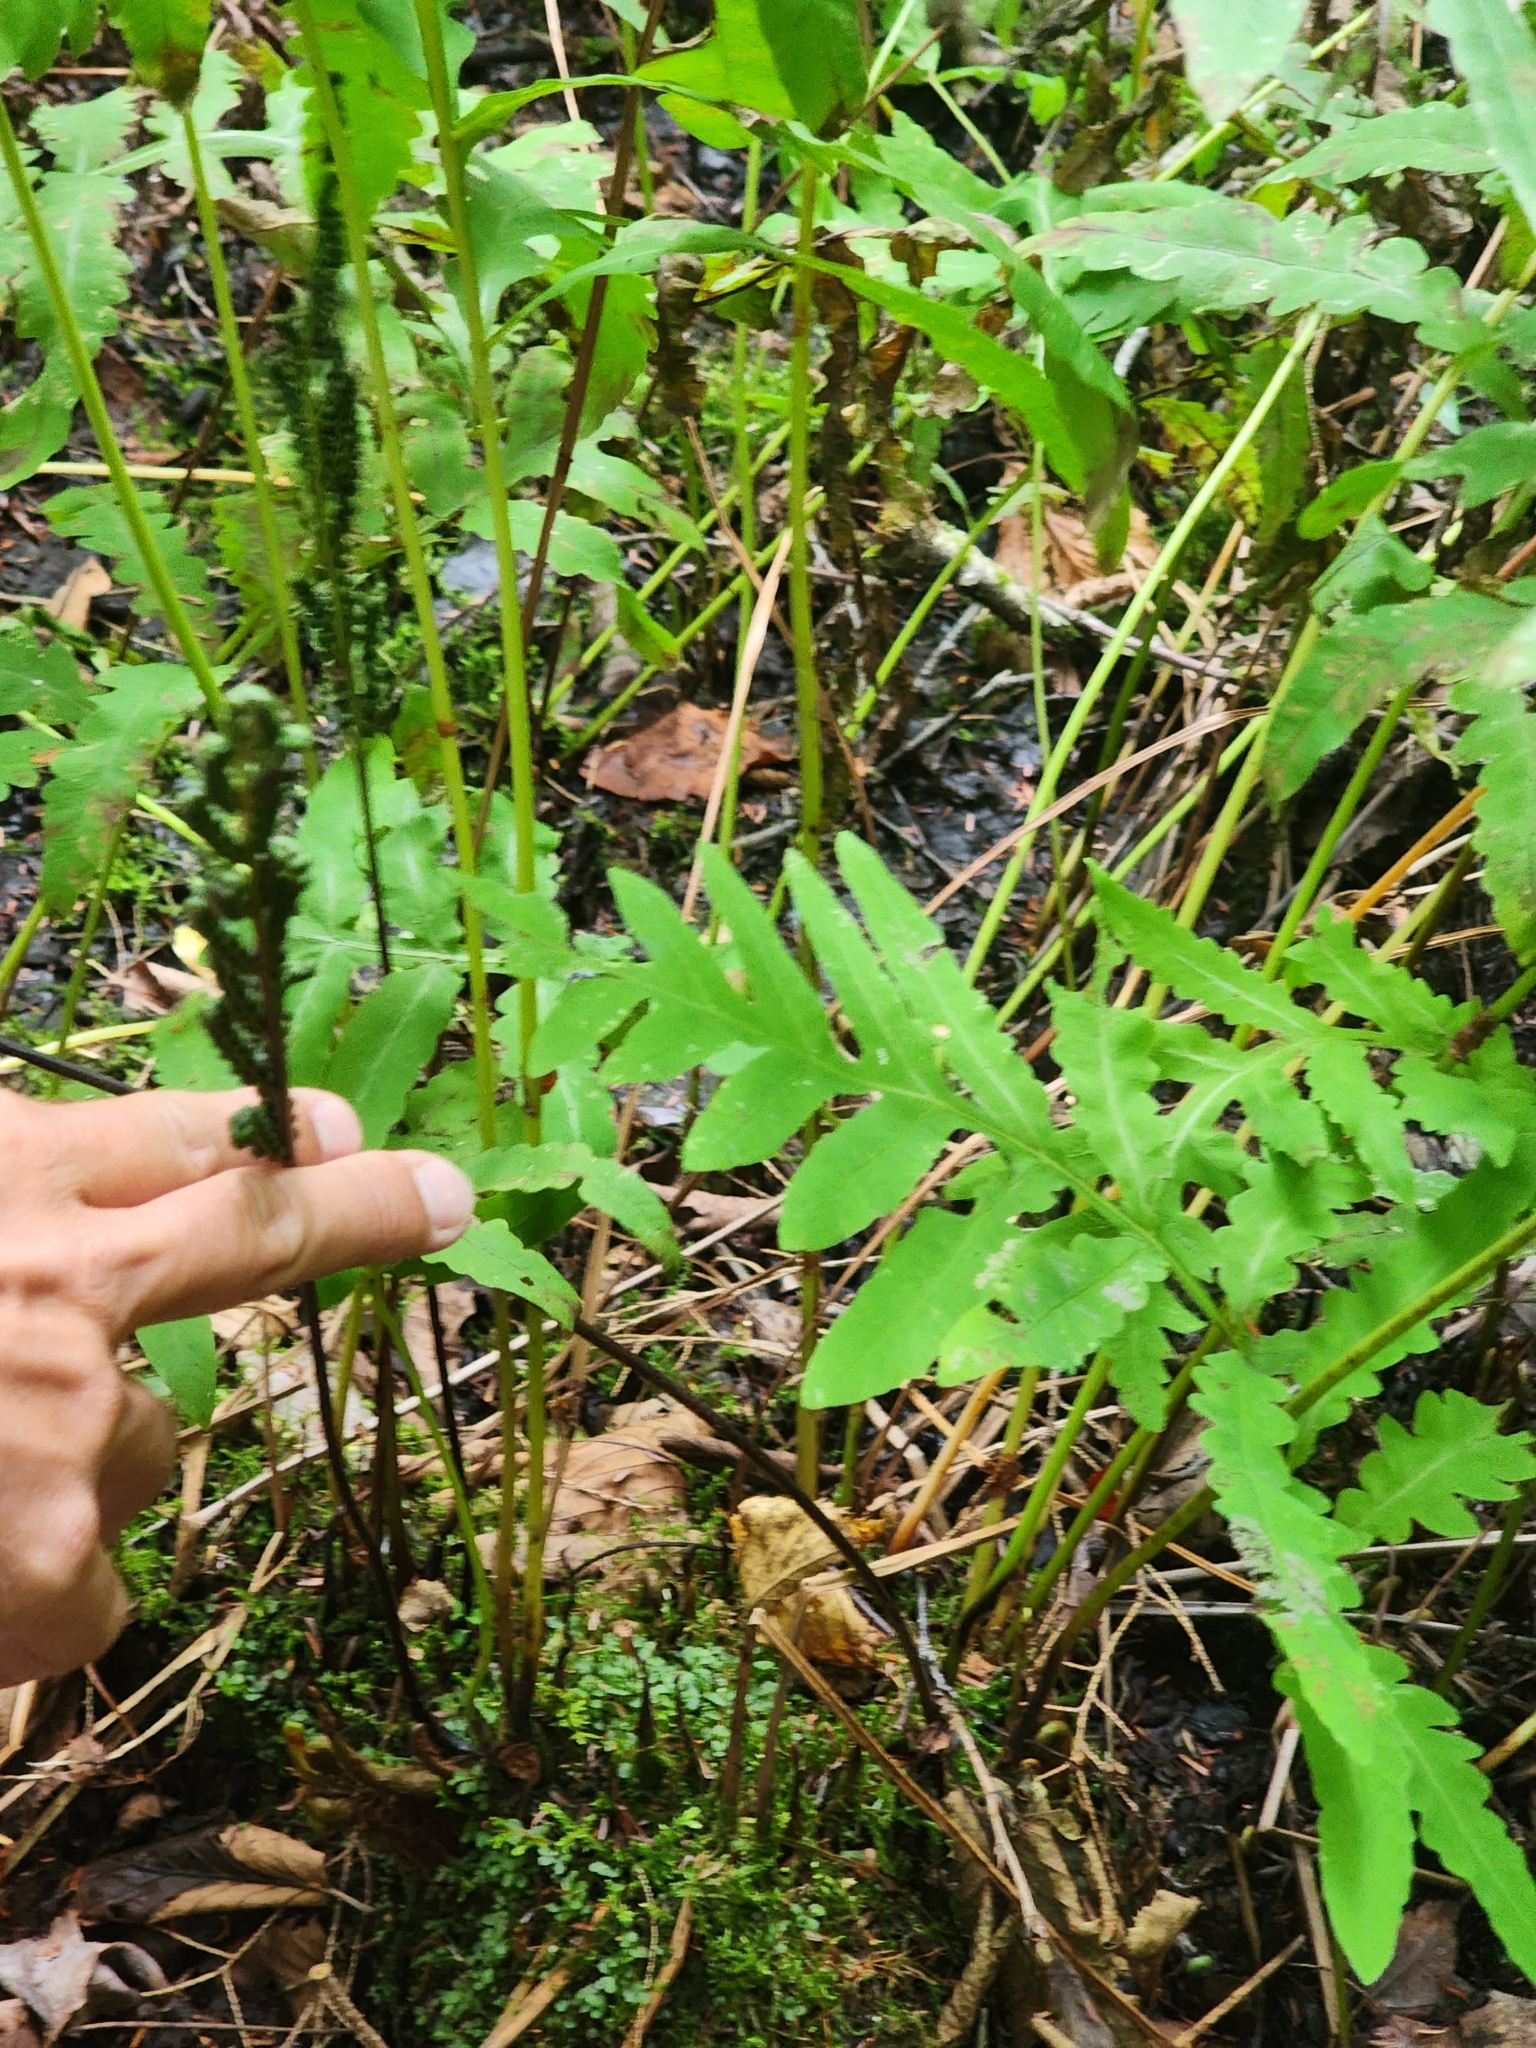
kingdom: Plantae
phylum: Tracheophyta
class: Polypodiopsida
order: Polypodiales
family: Onocleaceae
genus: Onoclea
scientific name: Onoclea sensibilis
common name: Sensitive fern
